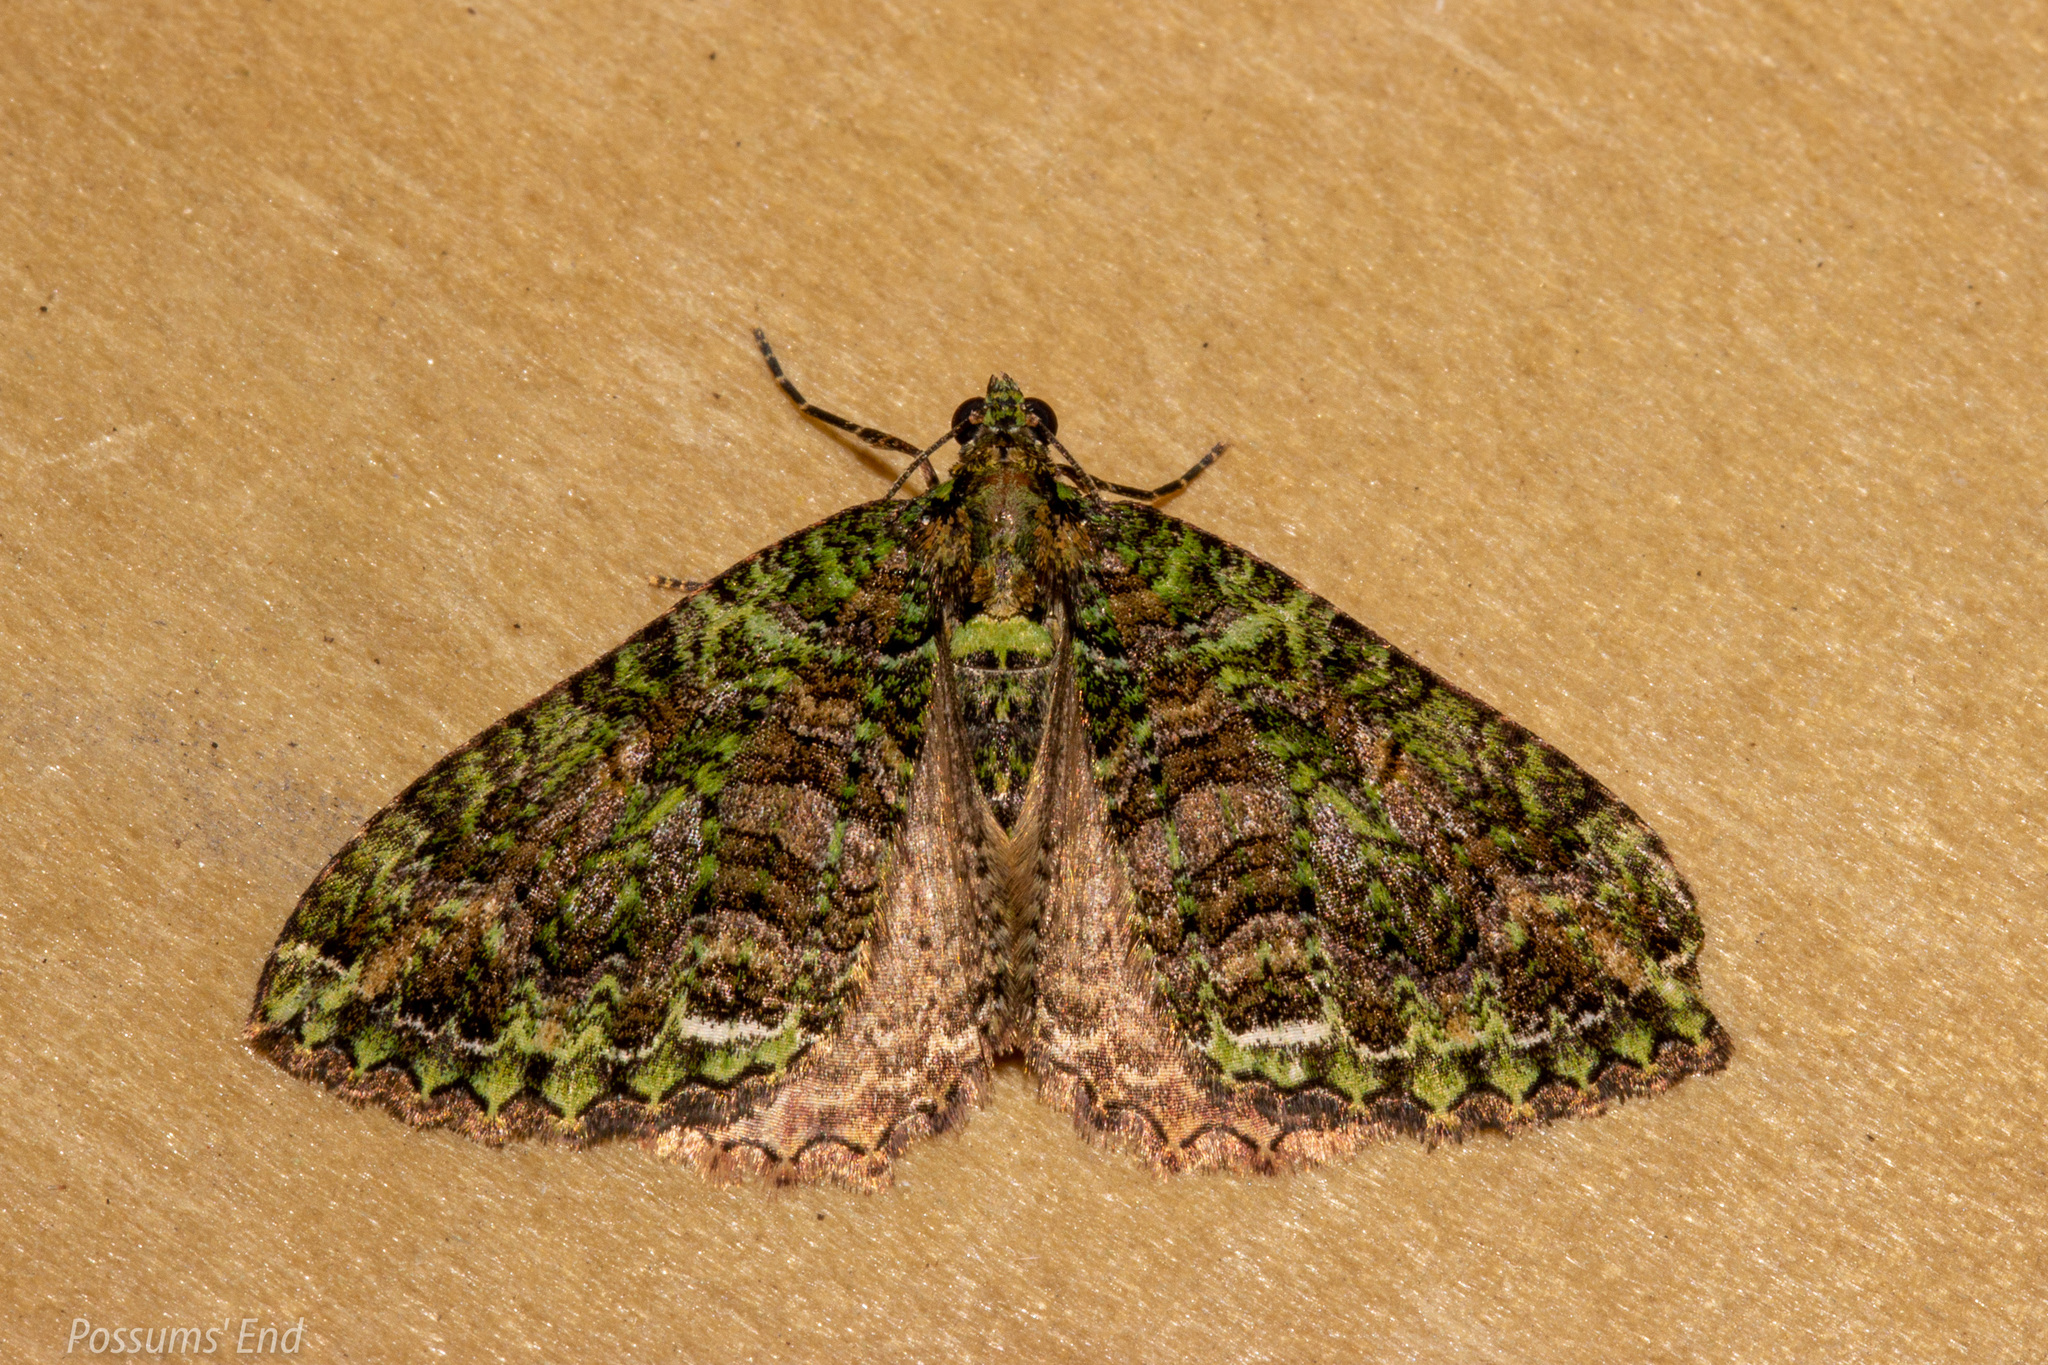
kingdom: Animalia
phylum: Arthropoda
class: Insecta
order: Lepidoptera
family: Geometridae
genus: Austrocidaria
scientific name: Austrocidaria similata
